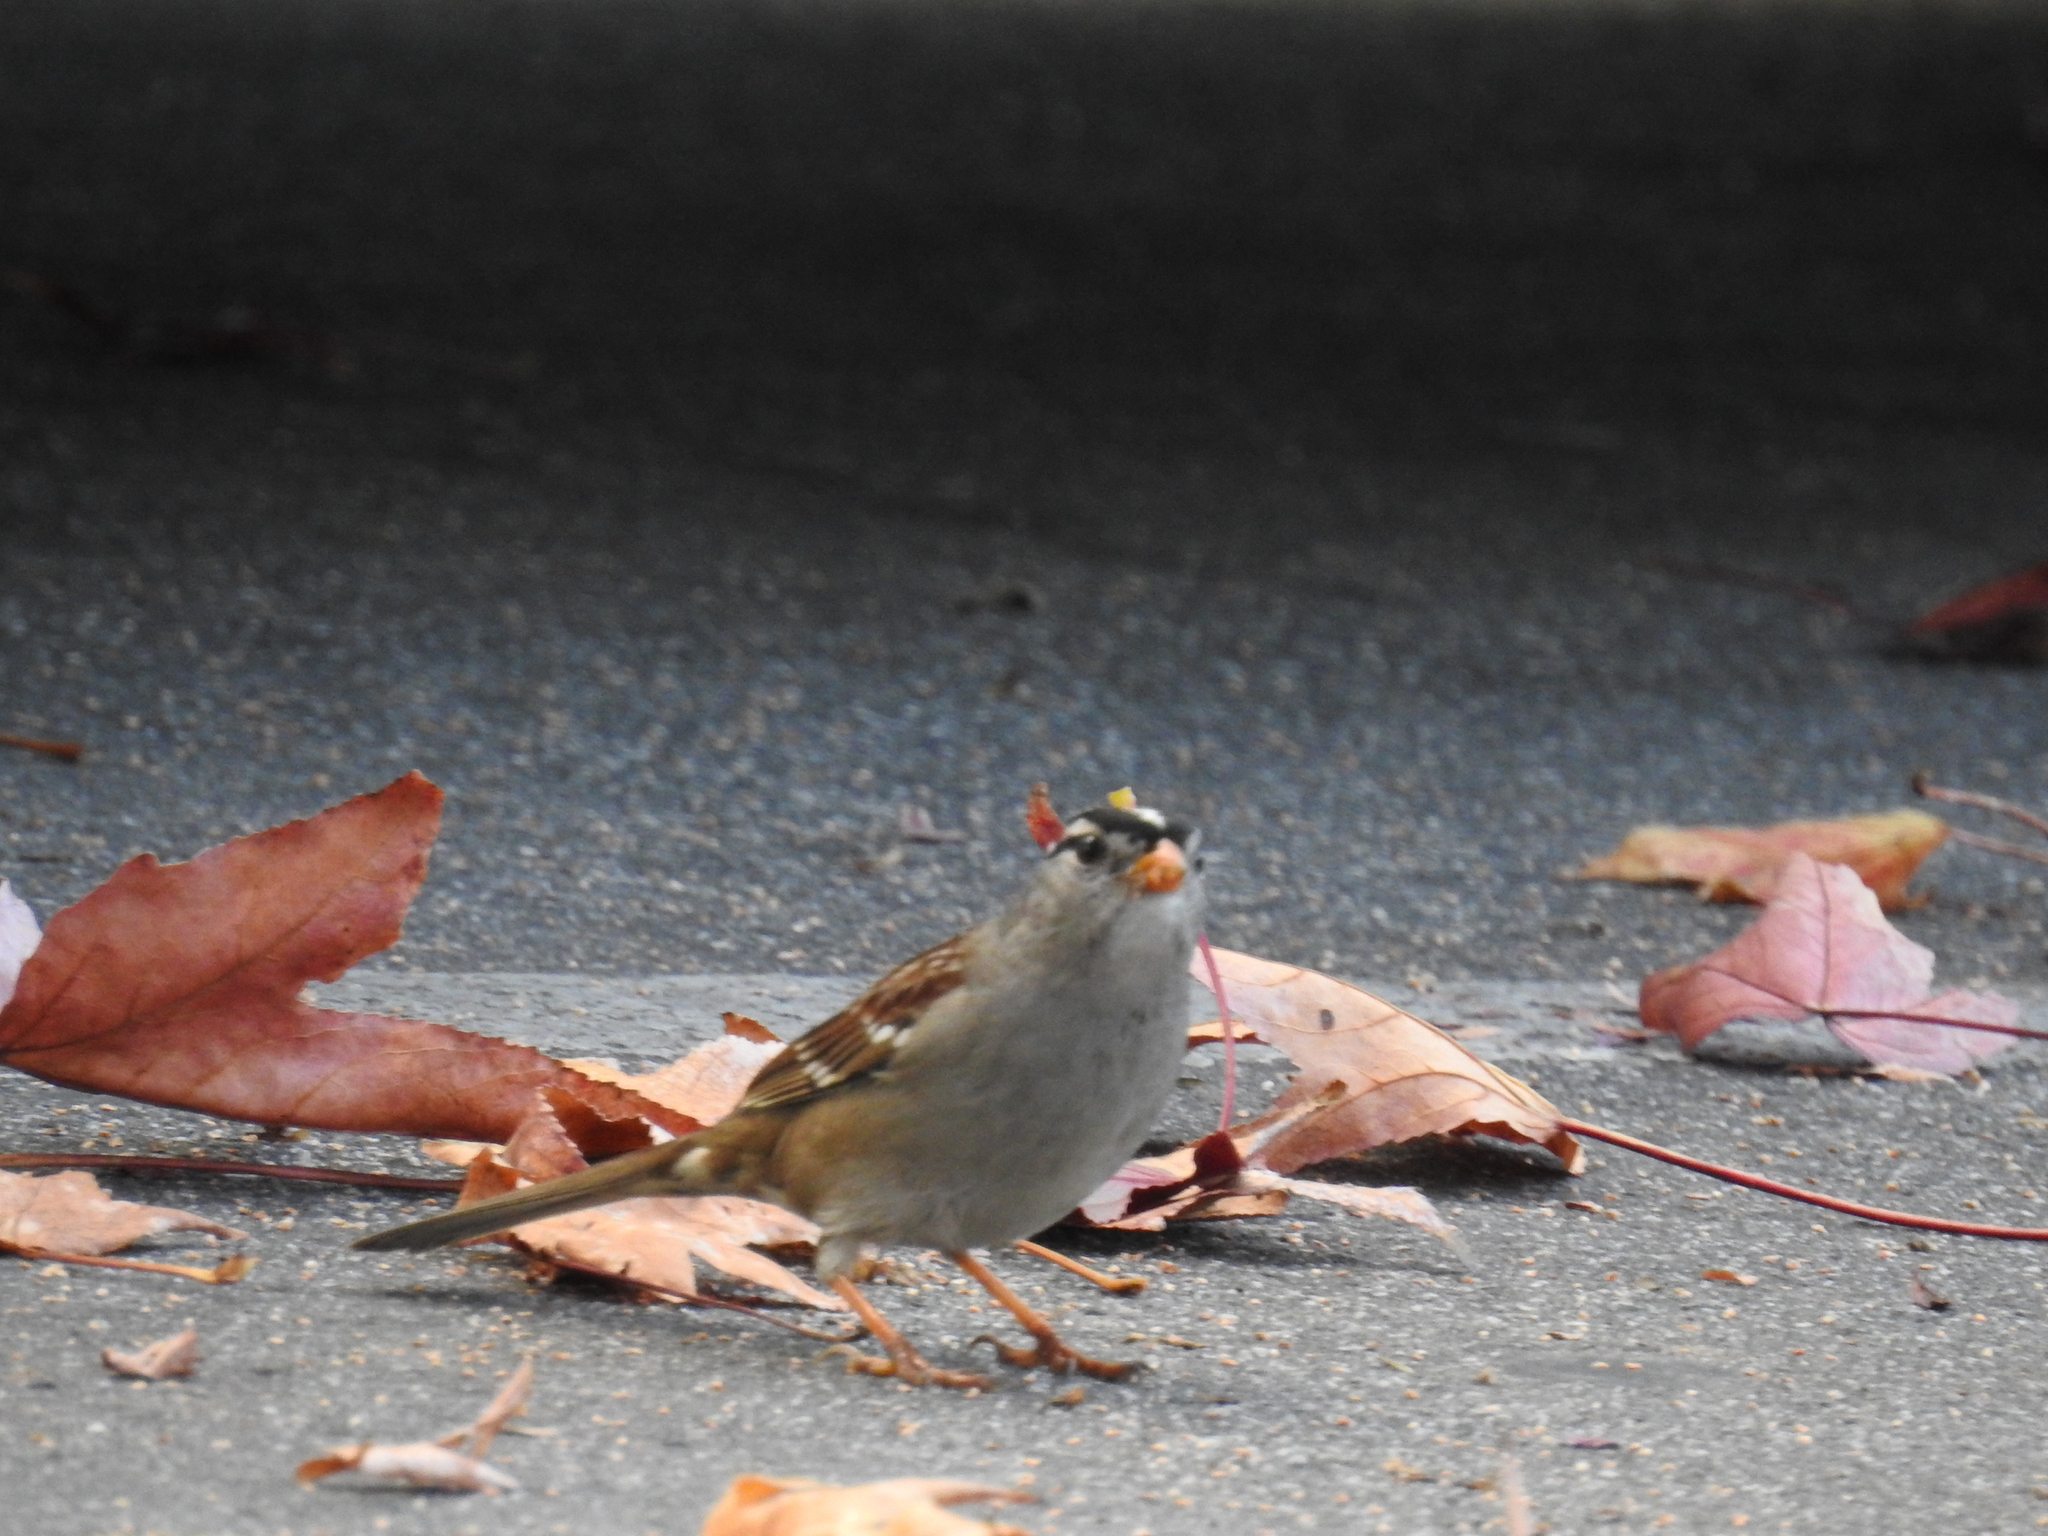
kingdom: Animalia
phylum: Chordata
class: Aves
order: Passeriformes
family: Passerellidae
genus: Zonotrichia
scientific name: Zonotrichia leucophrys
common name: White-crowned sparrow
